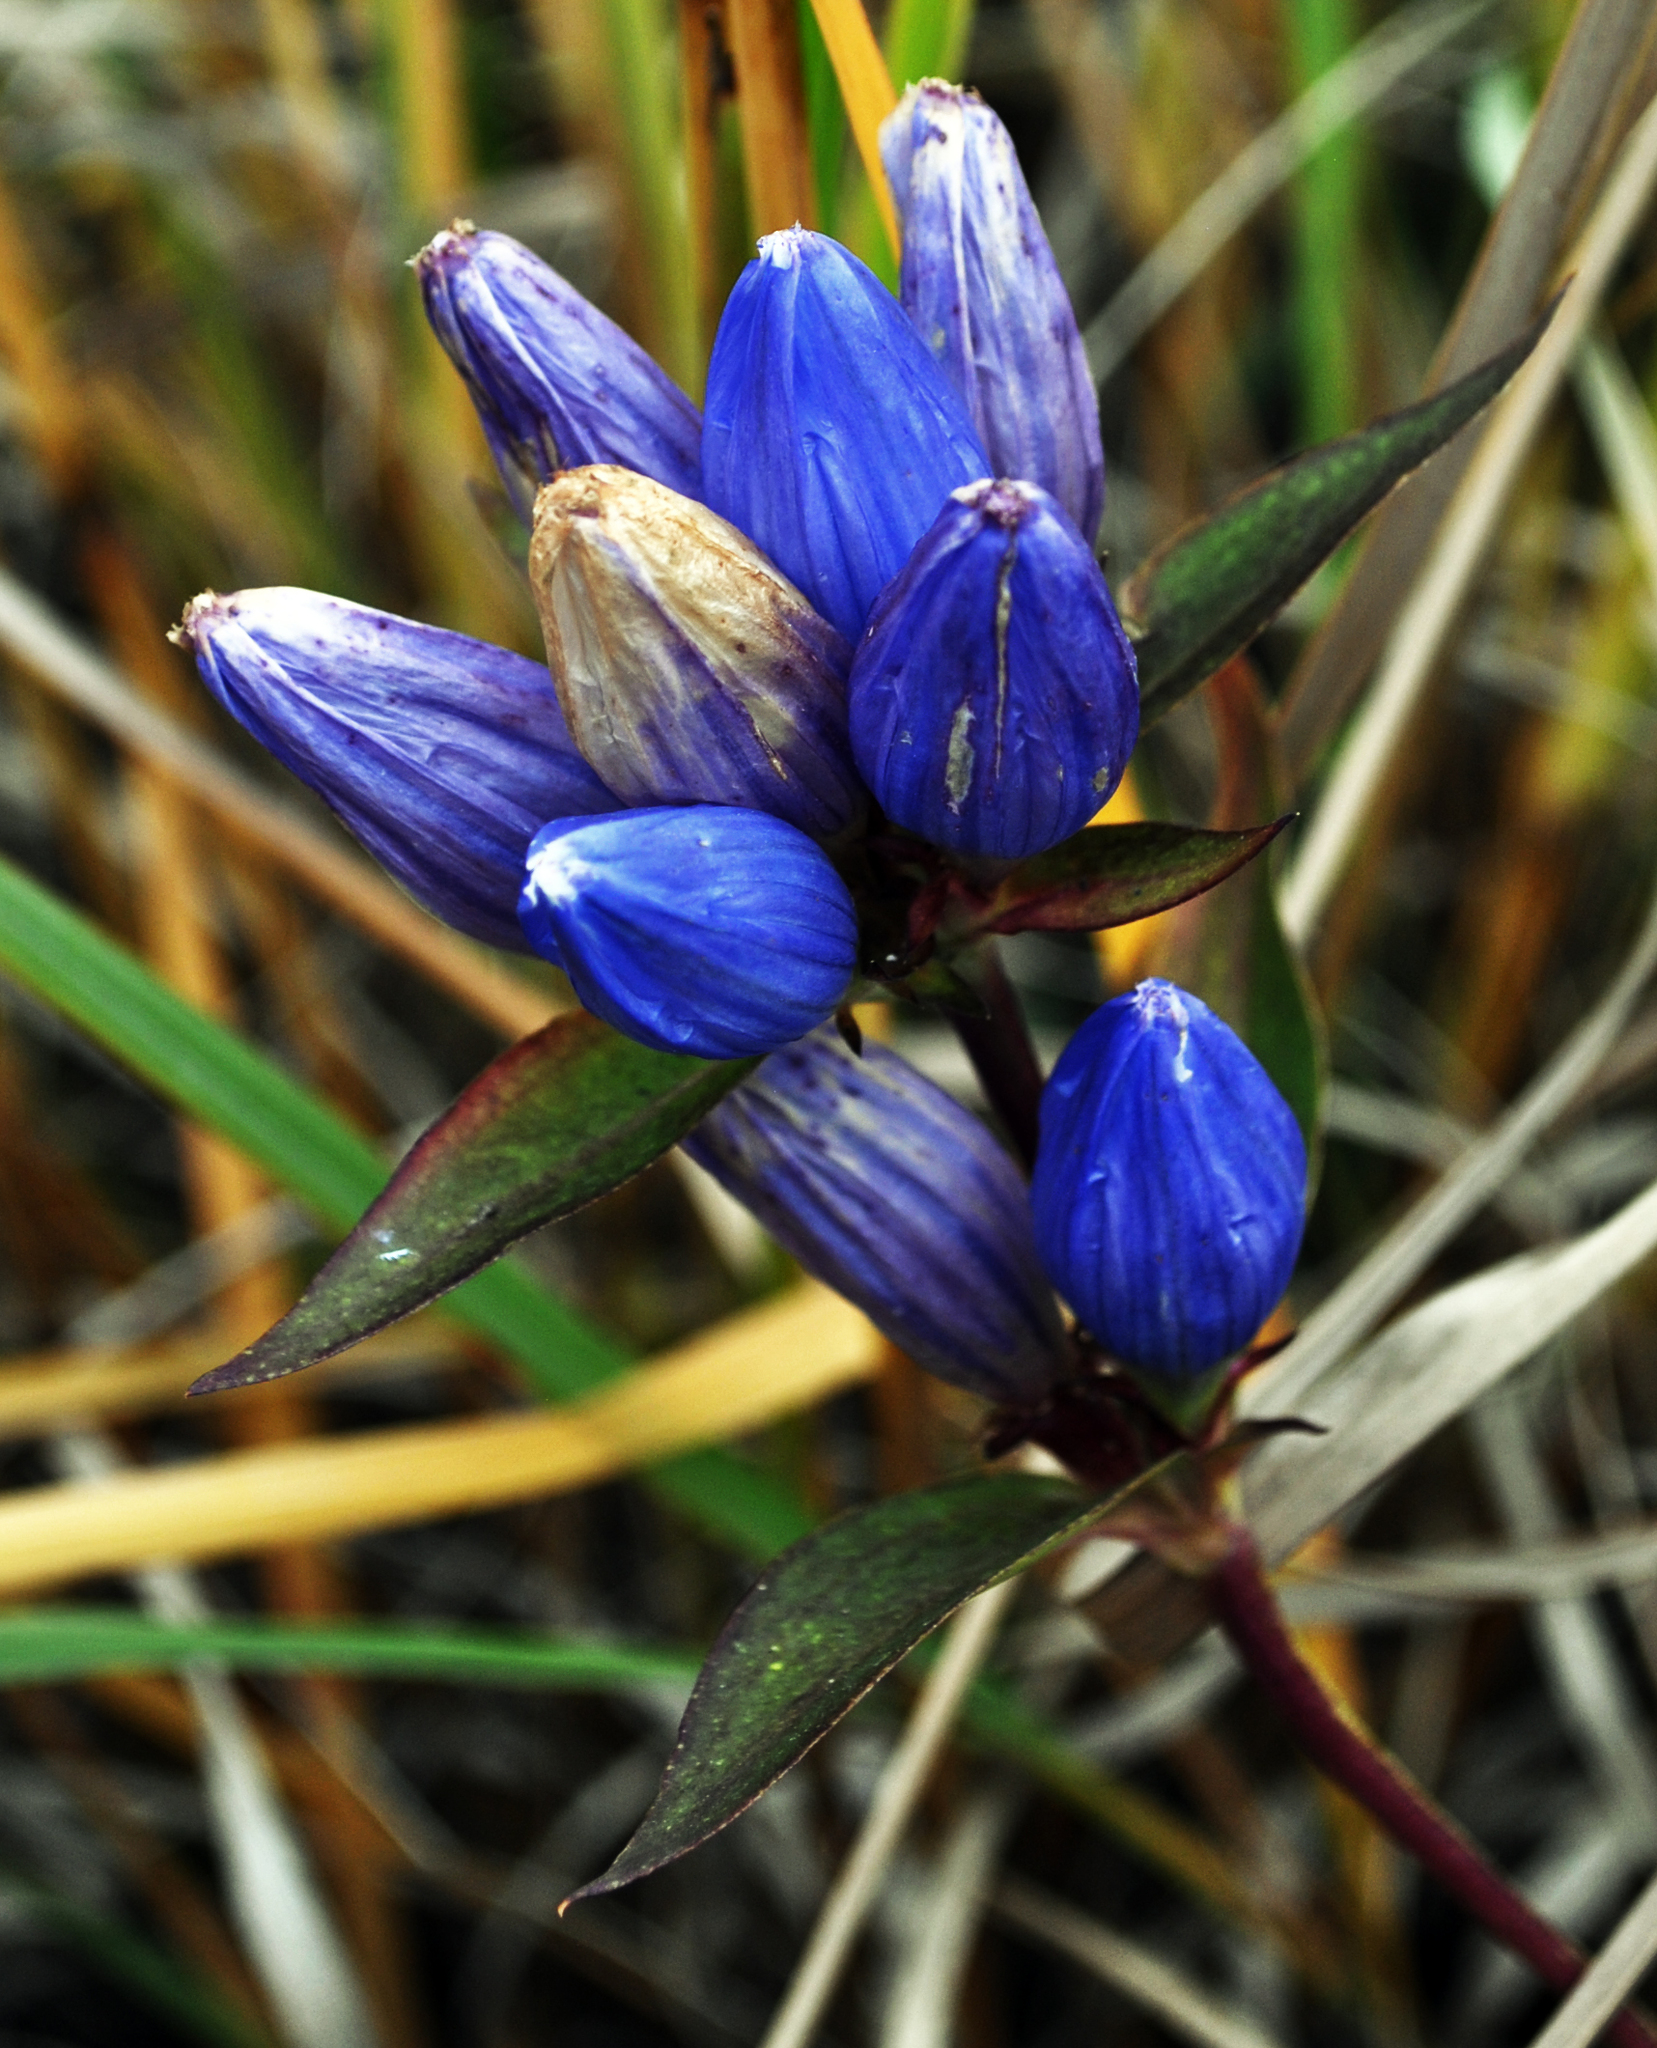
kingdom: Plantae
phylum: Tracheophyta
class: Magnoliopsida
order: Gentianales
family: Gentianaceae
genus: Gentiana
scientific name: Gentiana andrewsii
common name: Bottle gentian
